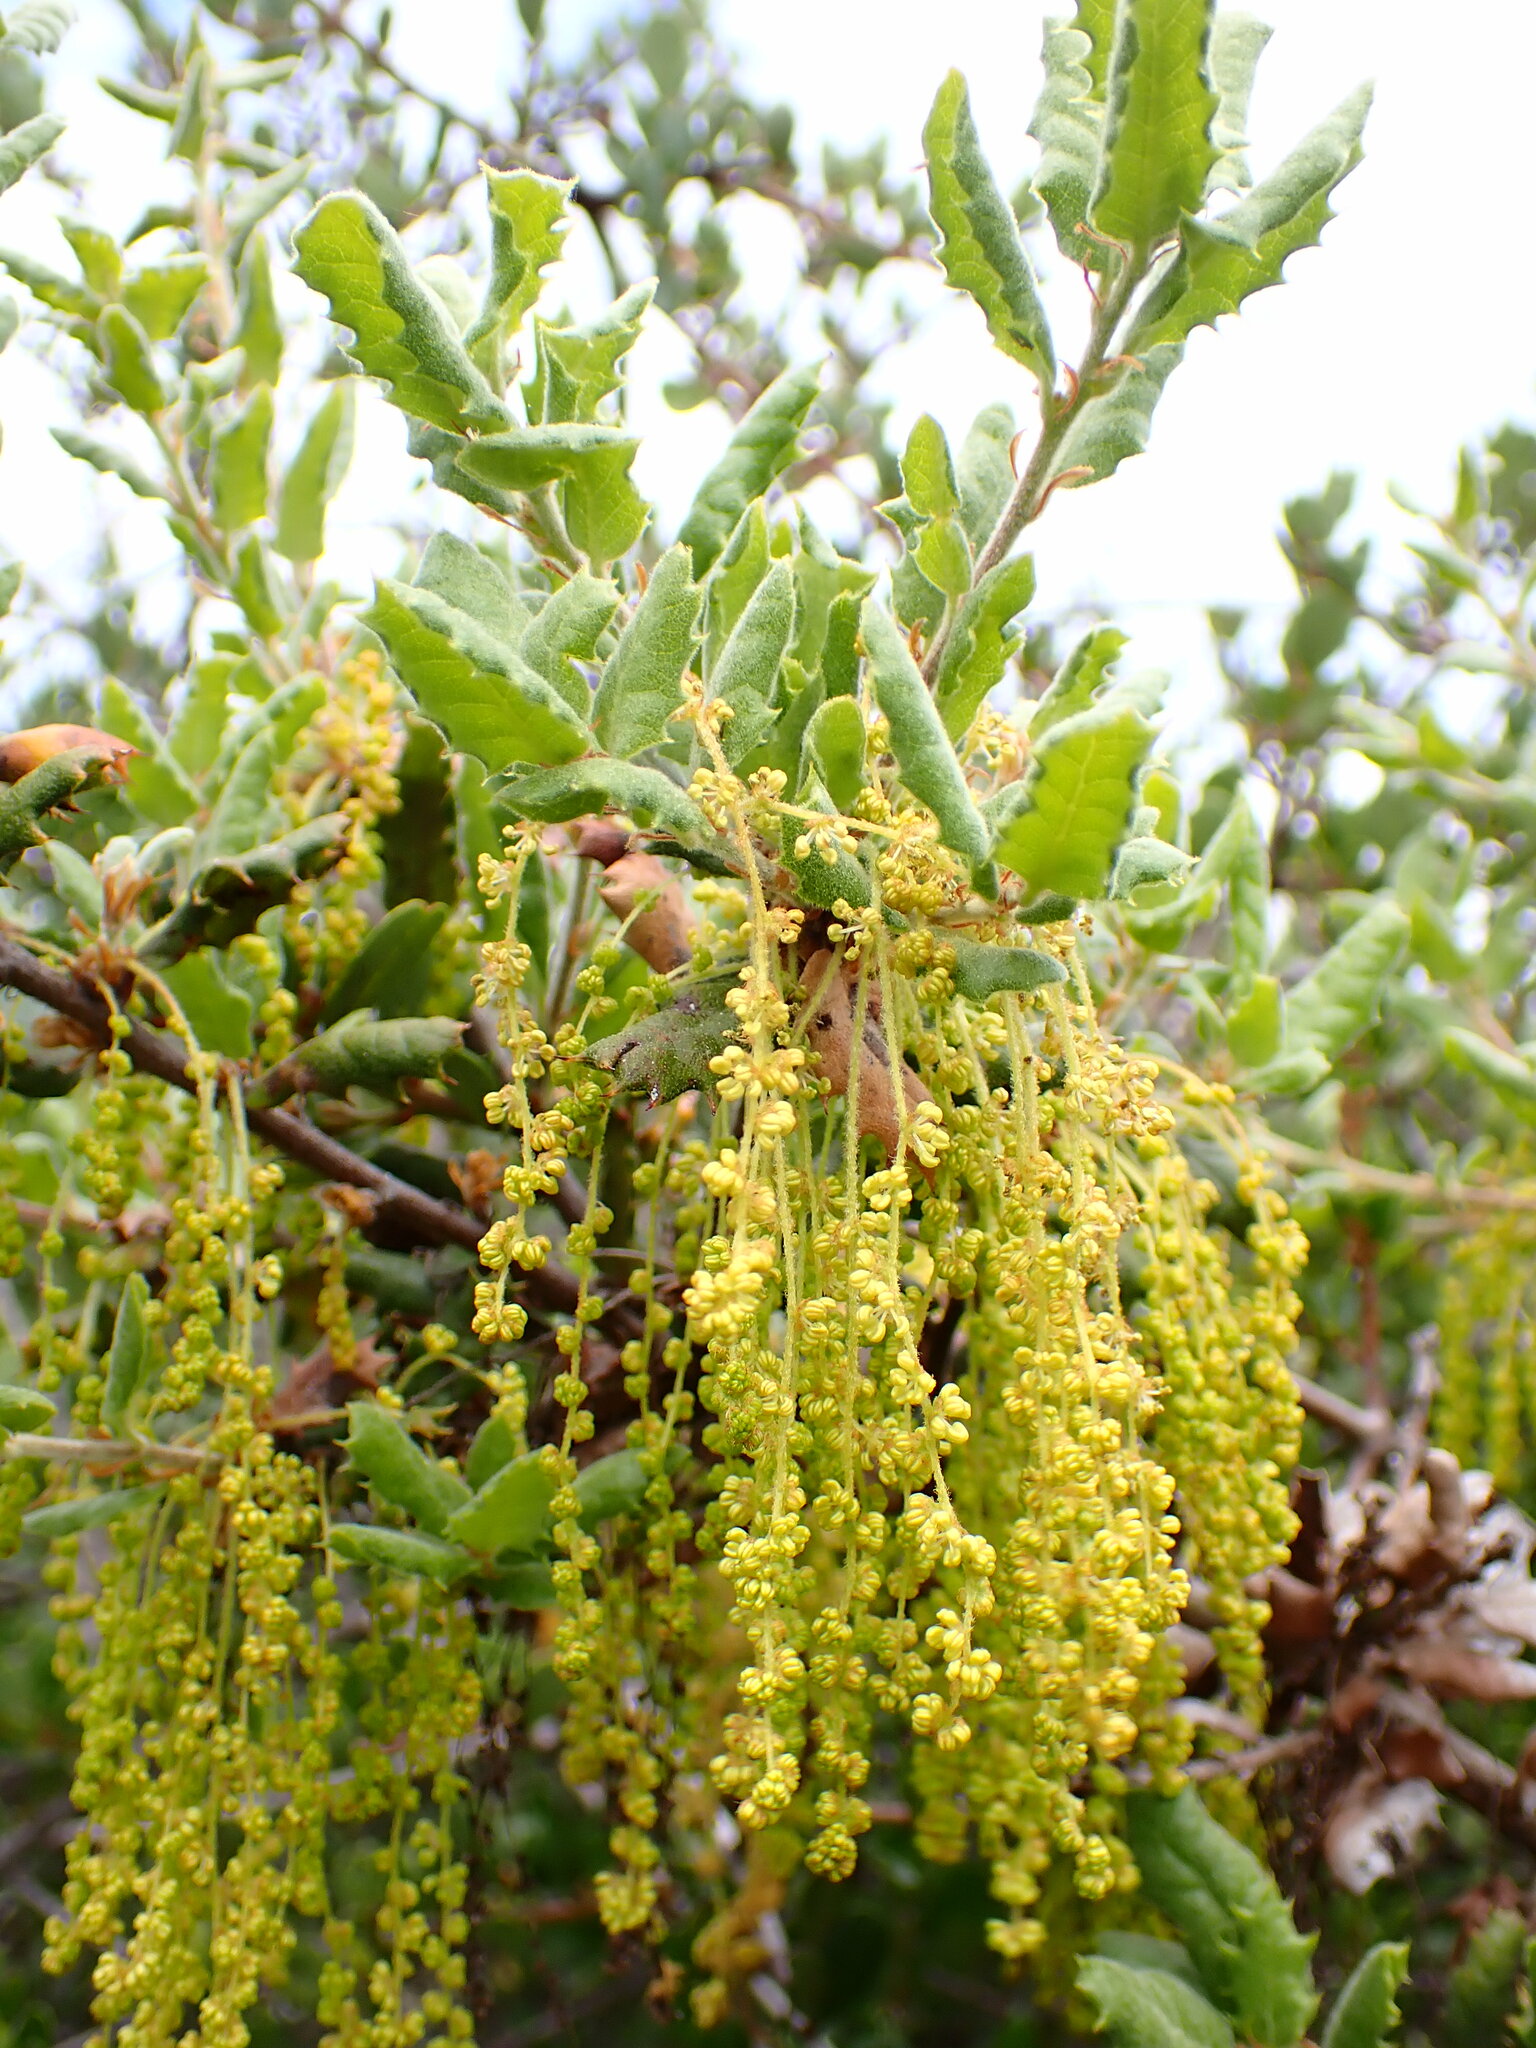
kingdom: Plantae
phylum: Tracheophyta
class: Magnoliopsida
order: Fagales
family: Fagaceae
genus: Quercus
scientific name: Quercus durata
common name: Leather oak
